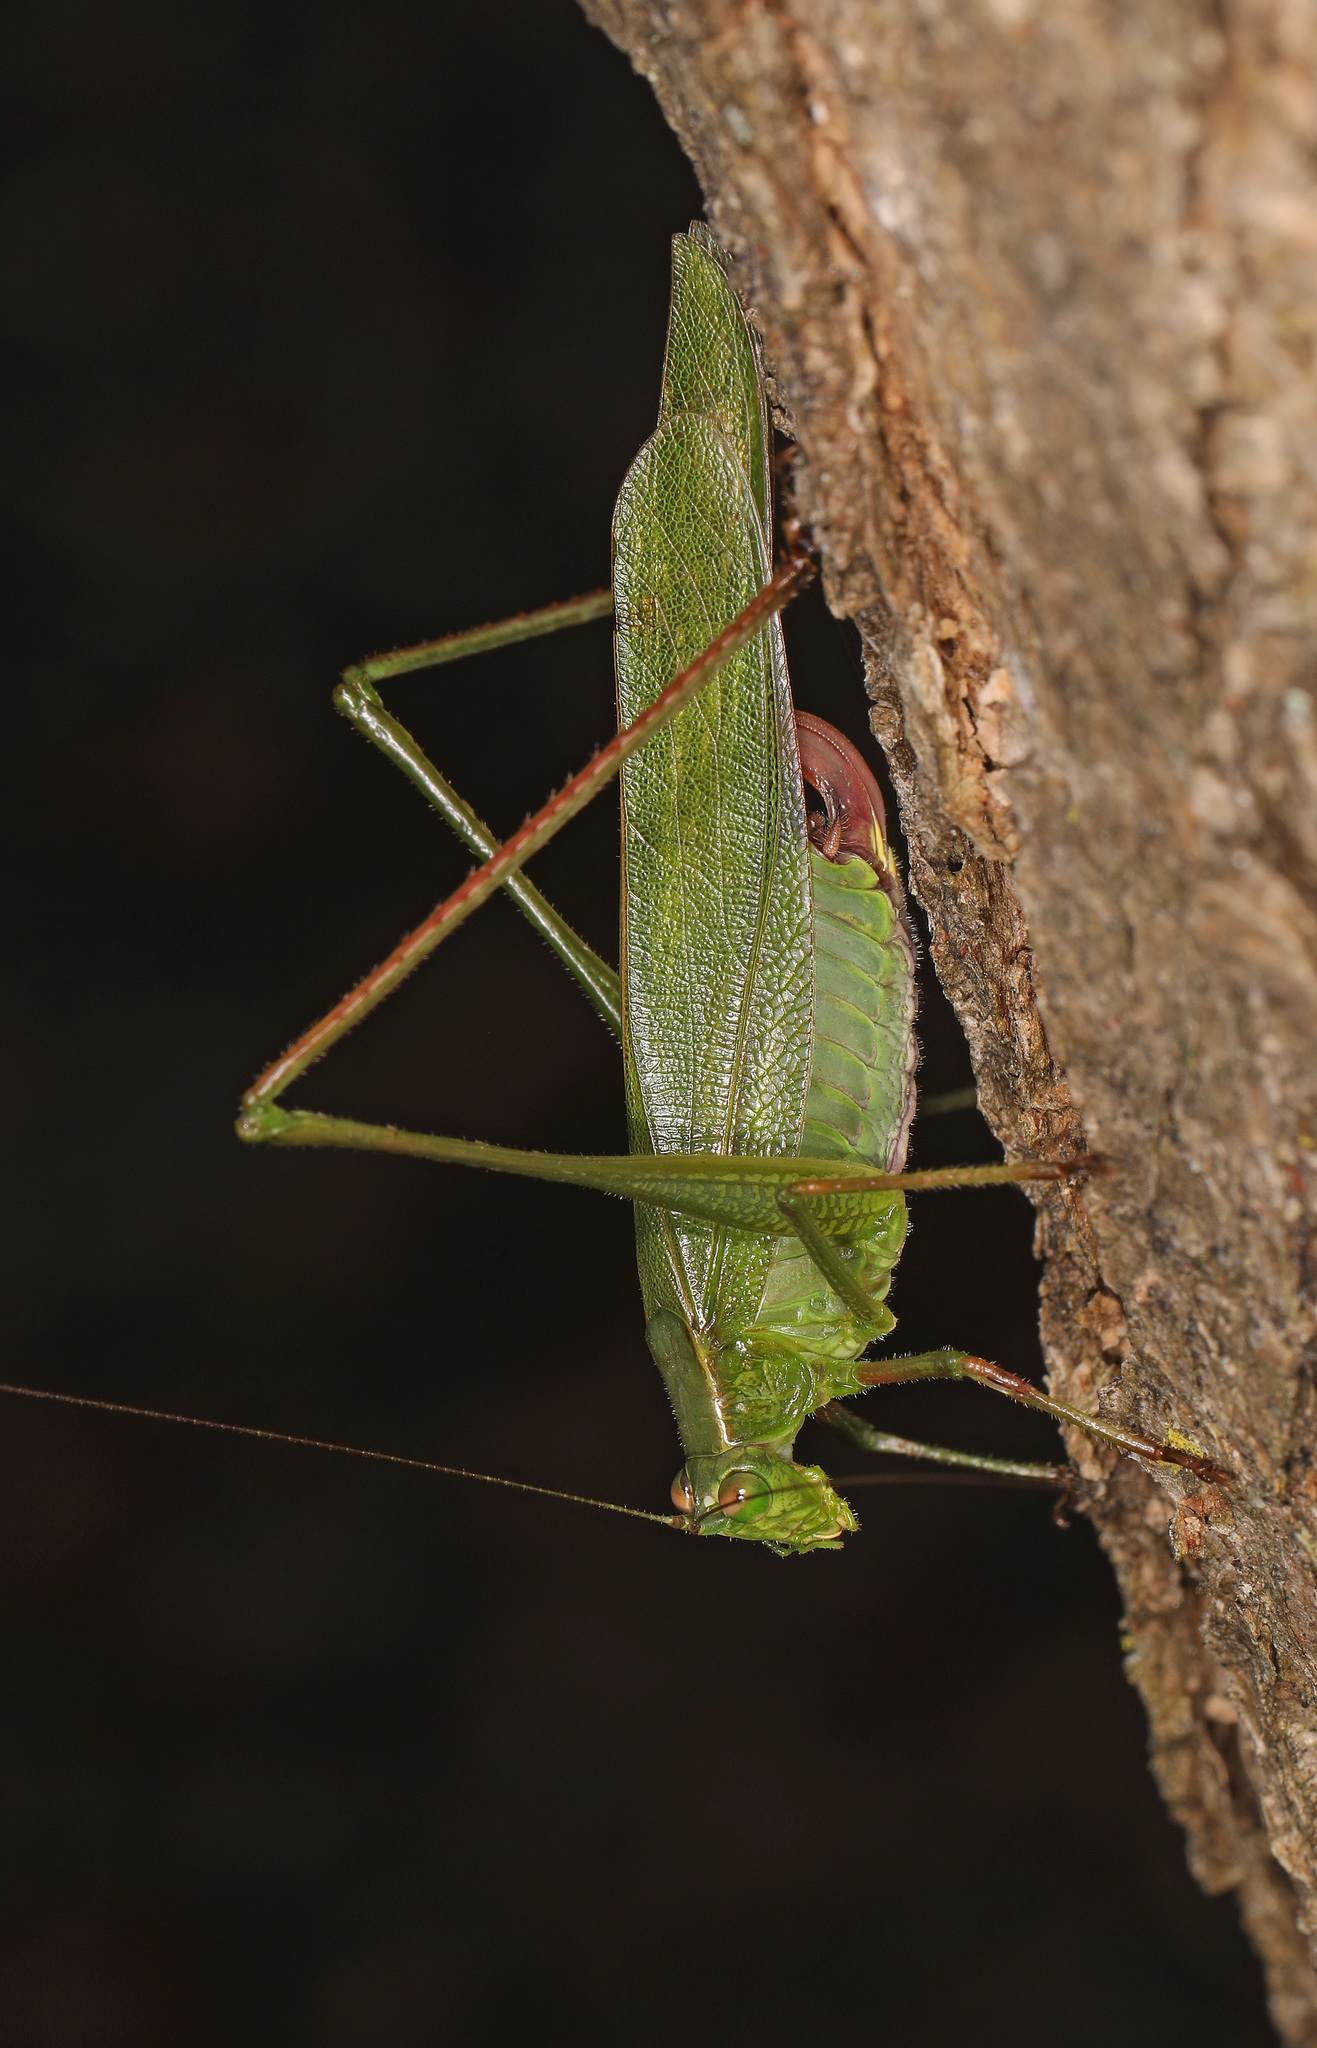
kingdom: Animalia
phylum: Arthropoda
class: Insecta
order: Orthoptera
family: Tettigoniidae
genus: Scudderia
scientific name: Scudderia furcata
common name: Fork-tailed bush katydid
